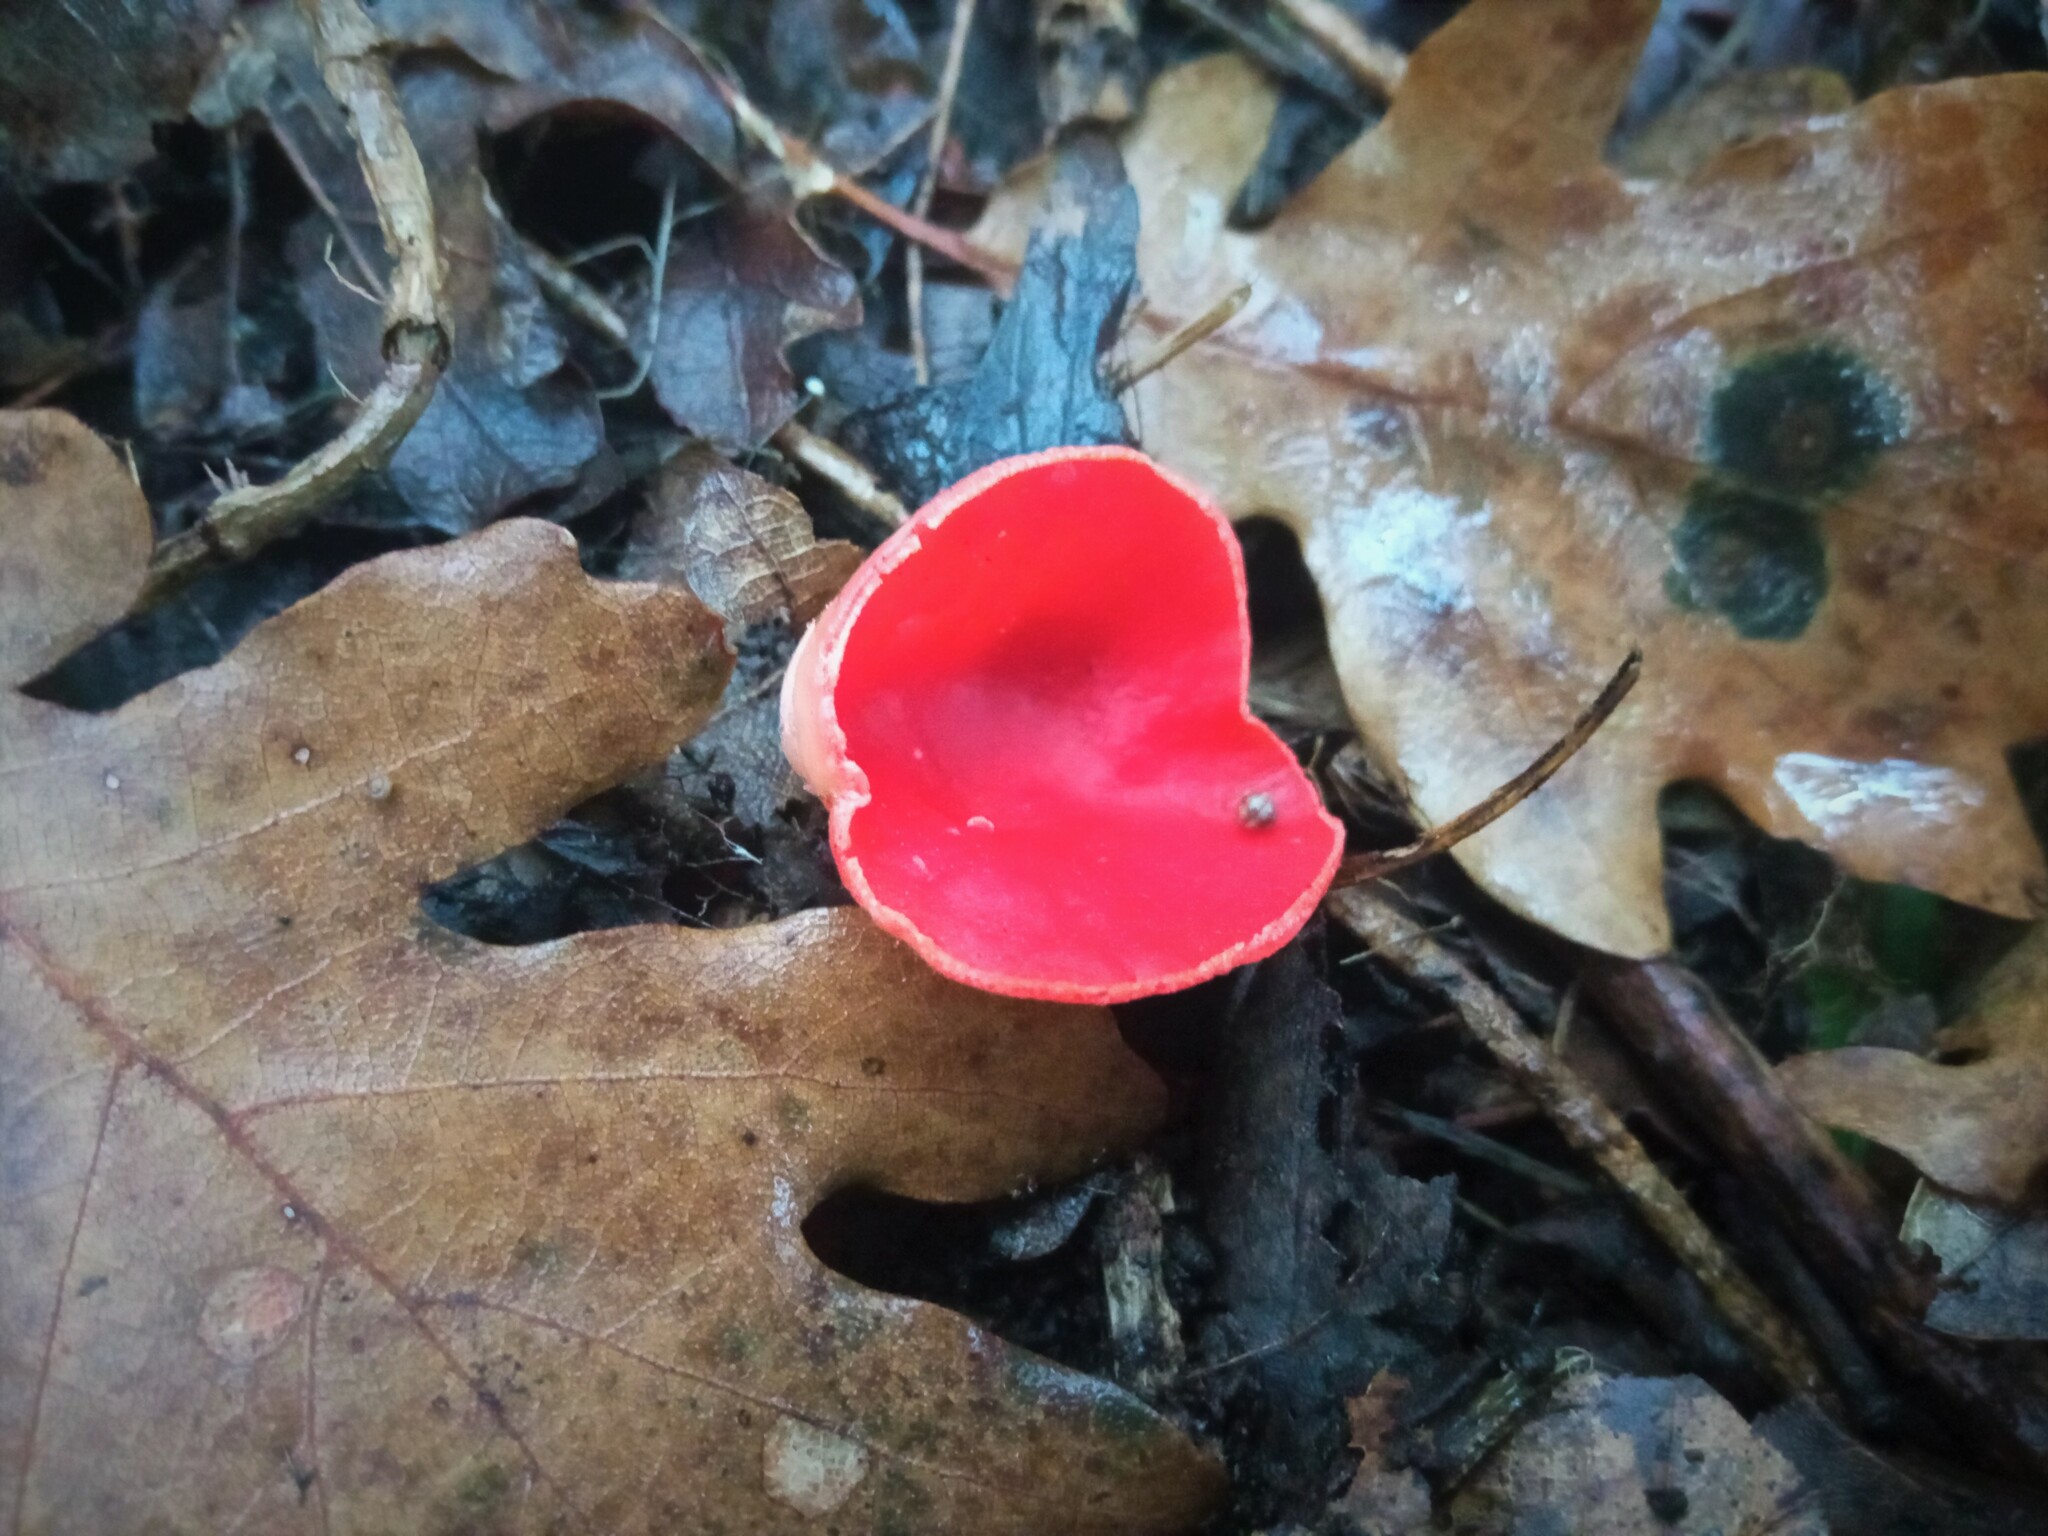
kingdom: Fungi
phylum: Ascomycota
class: Pezizomycetes
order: Pezizales
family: Sarcoscyphaceae
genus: Sarcoscypha
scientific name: Sarcoscypha
